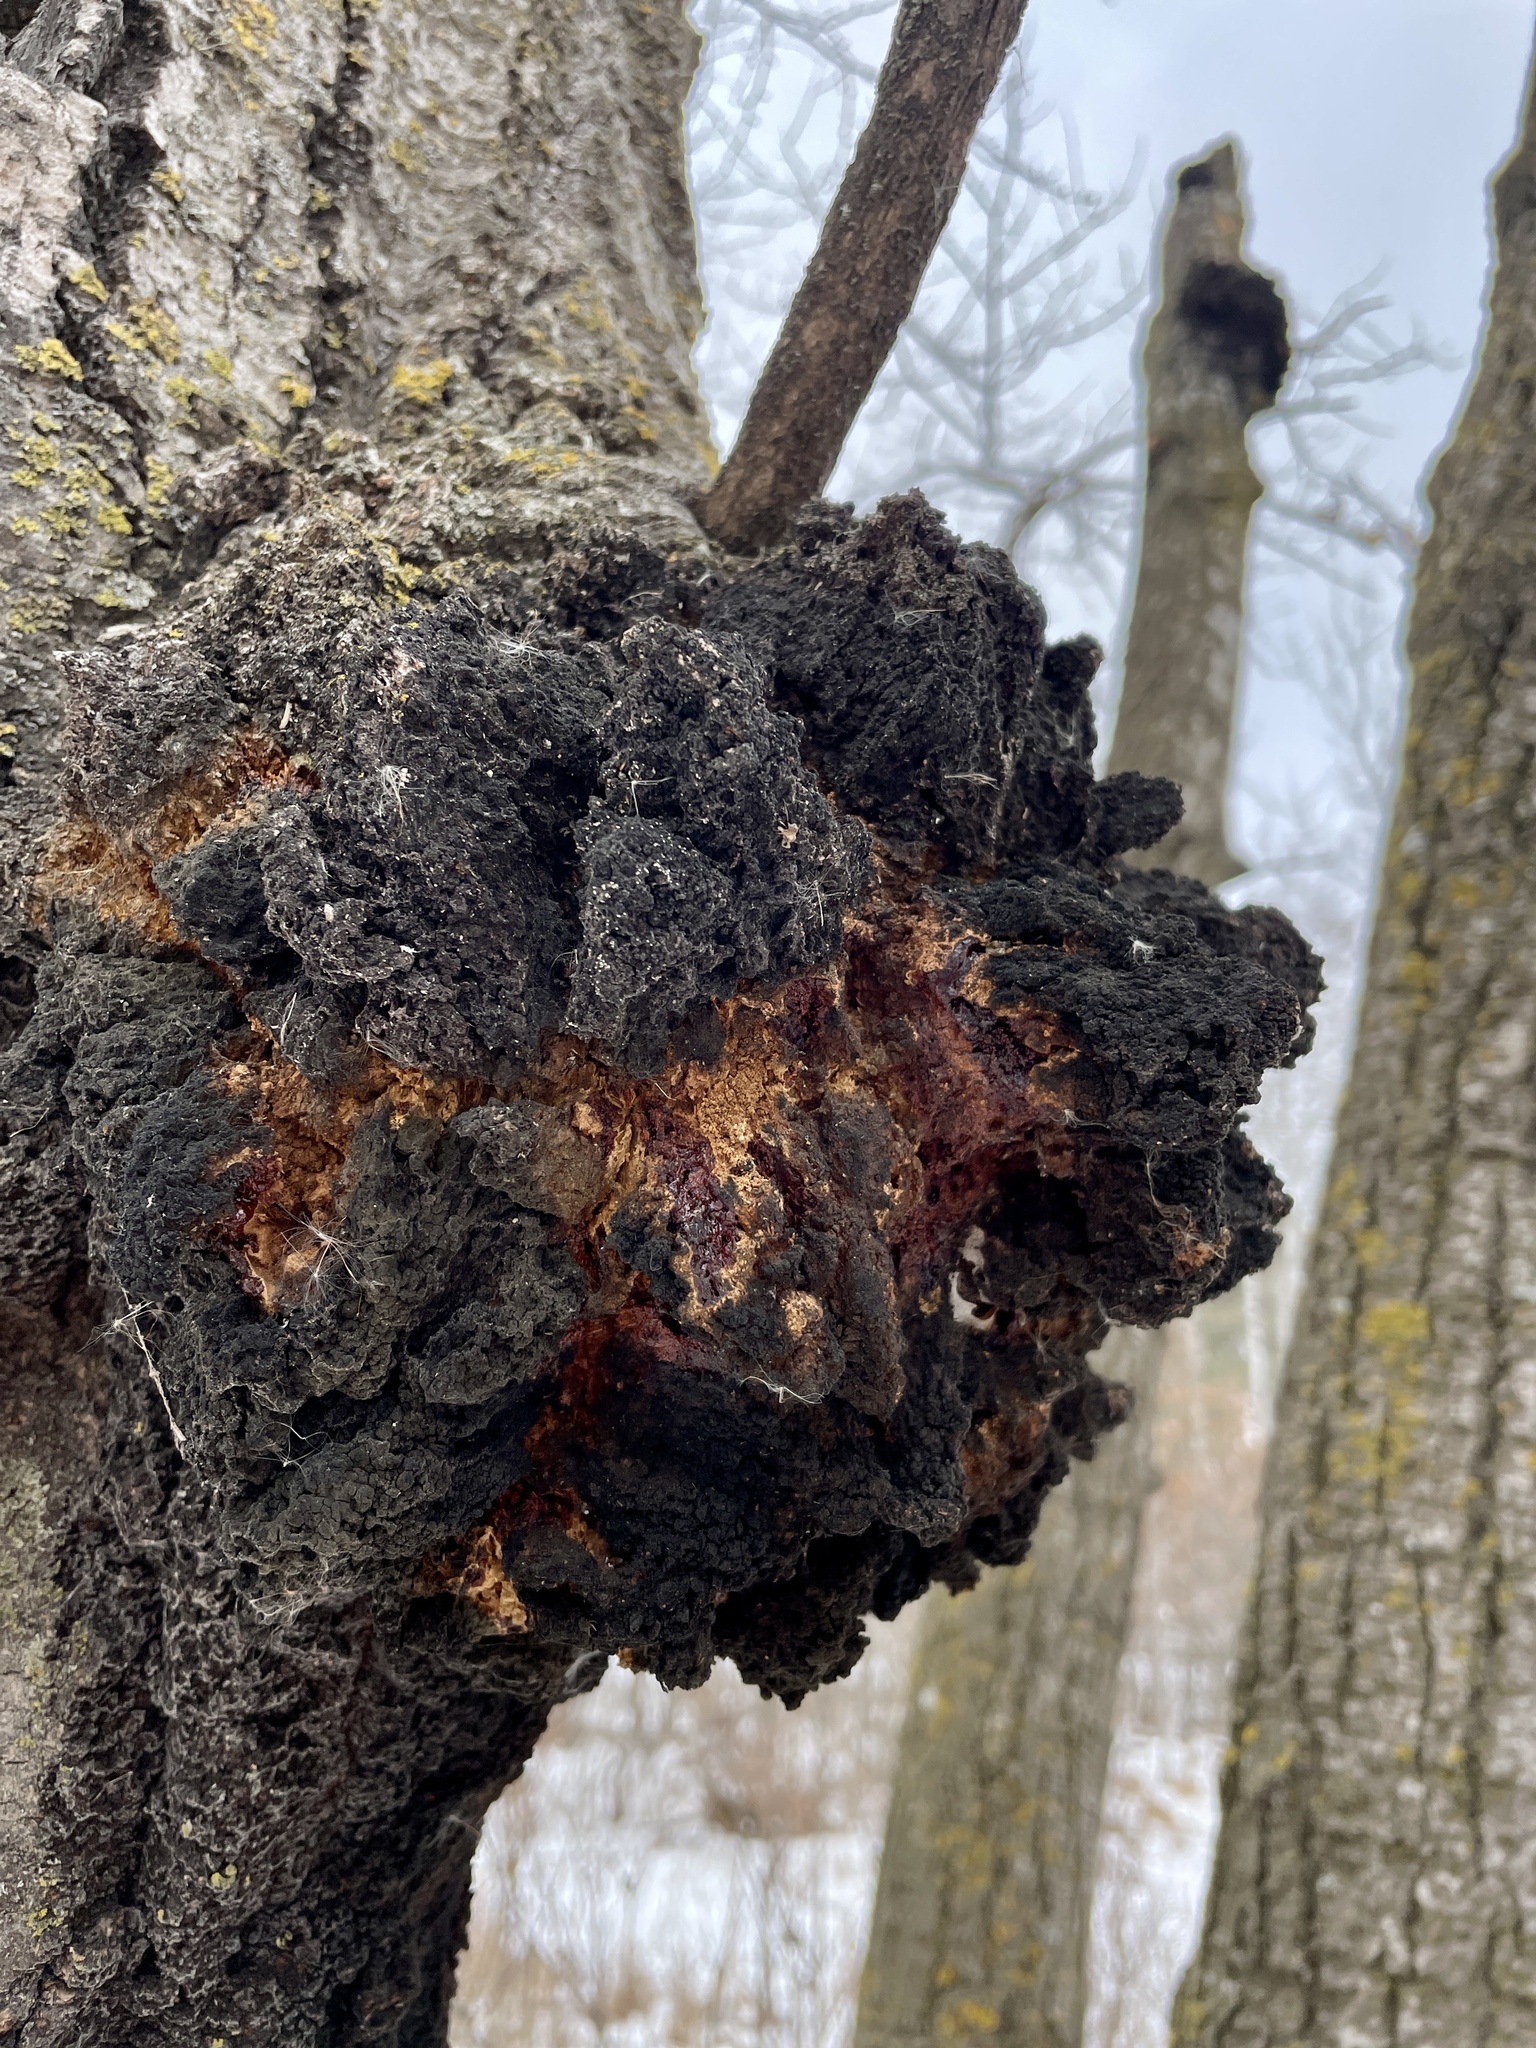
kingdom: Fungi
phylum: Ascomycota
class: Dothideomycetes
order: Botryosphaeriales
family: Botryosphaeriaceae
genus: Diplodia
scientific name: Diplodia tumefaciens
